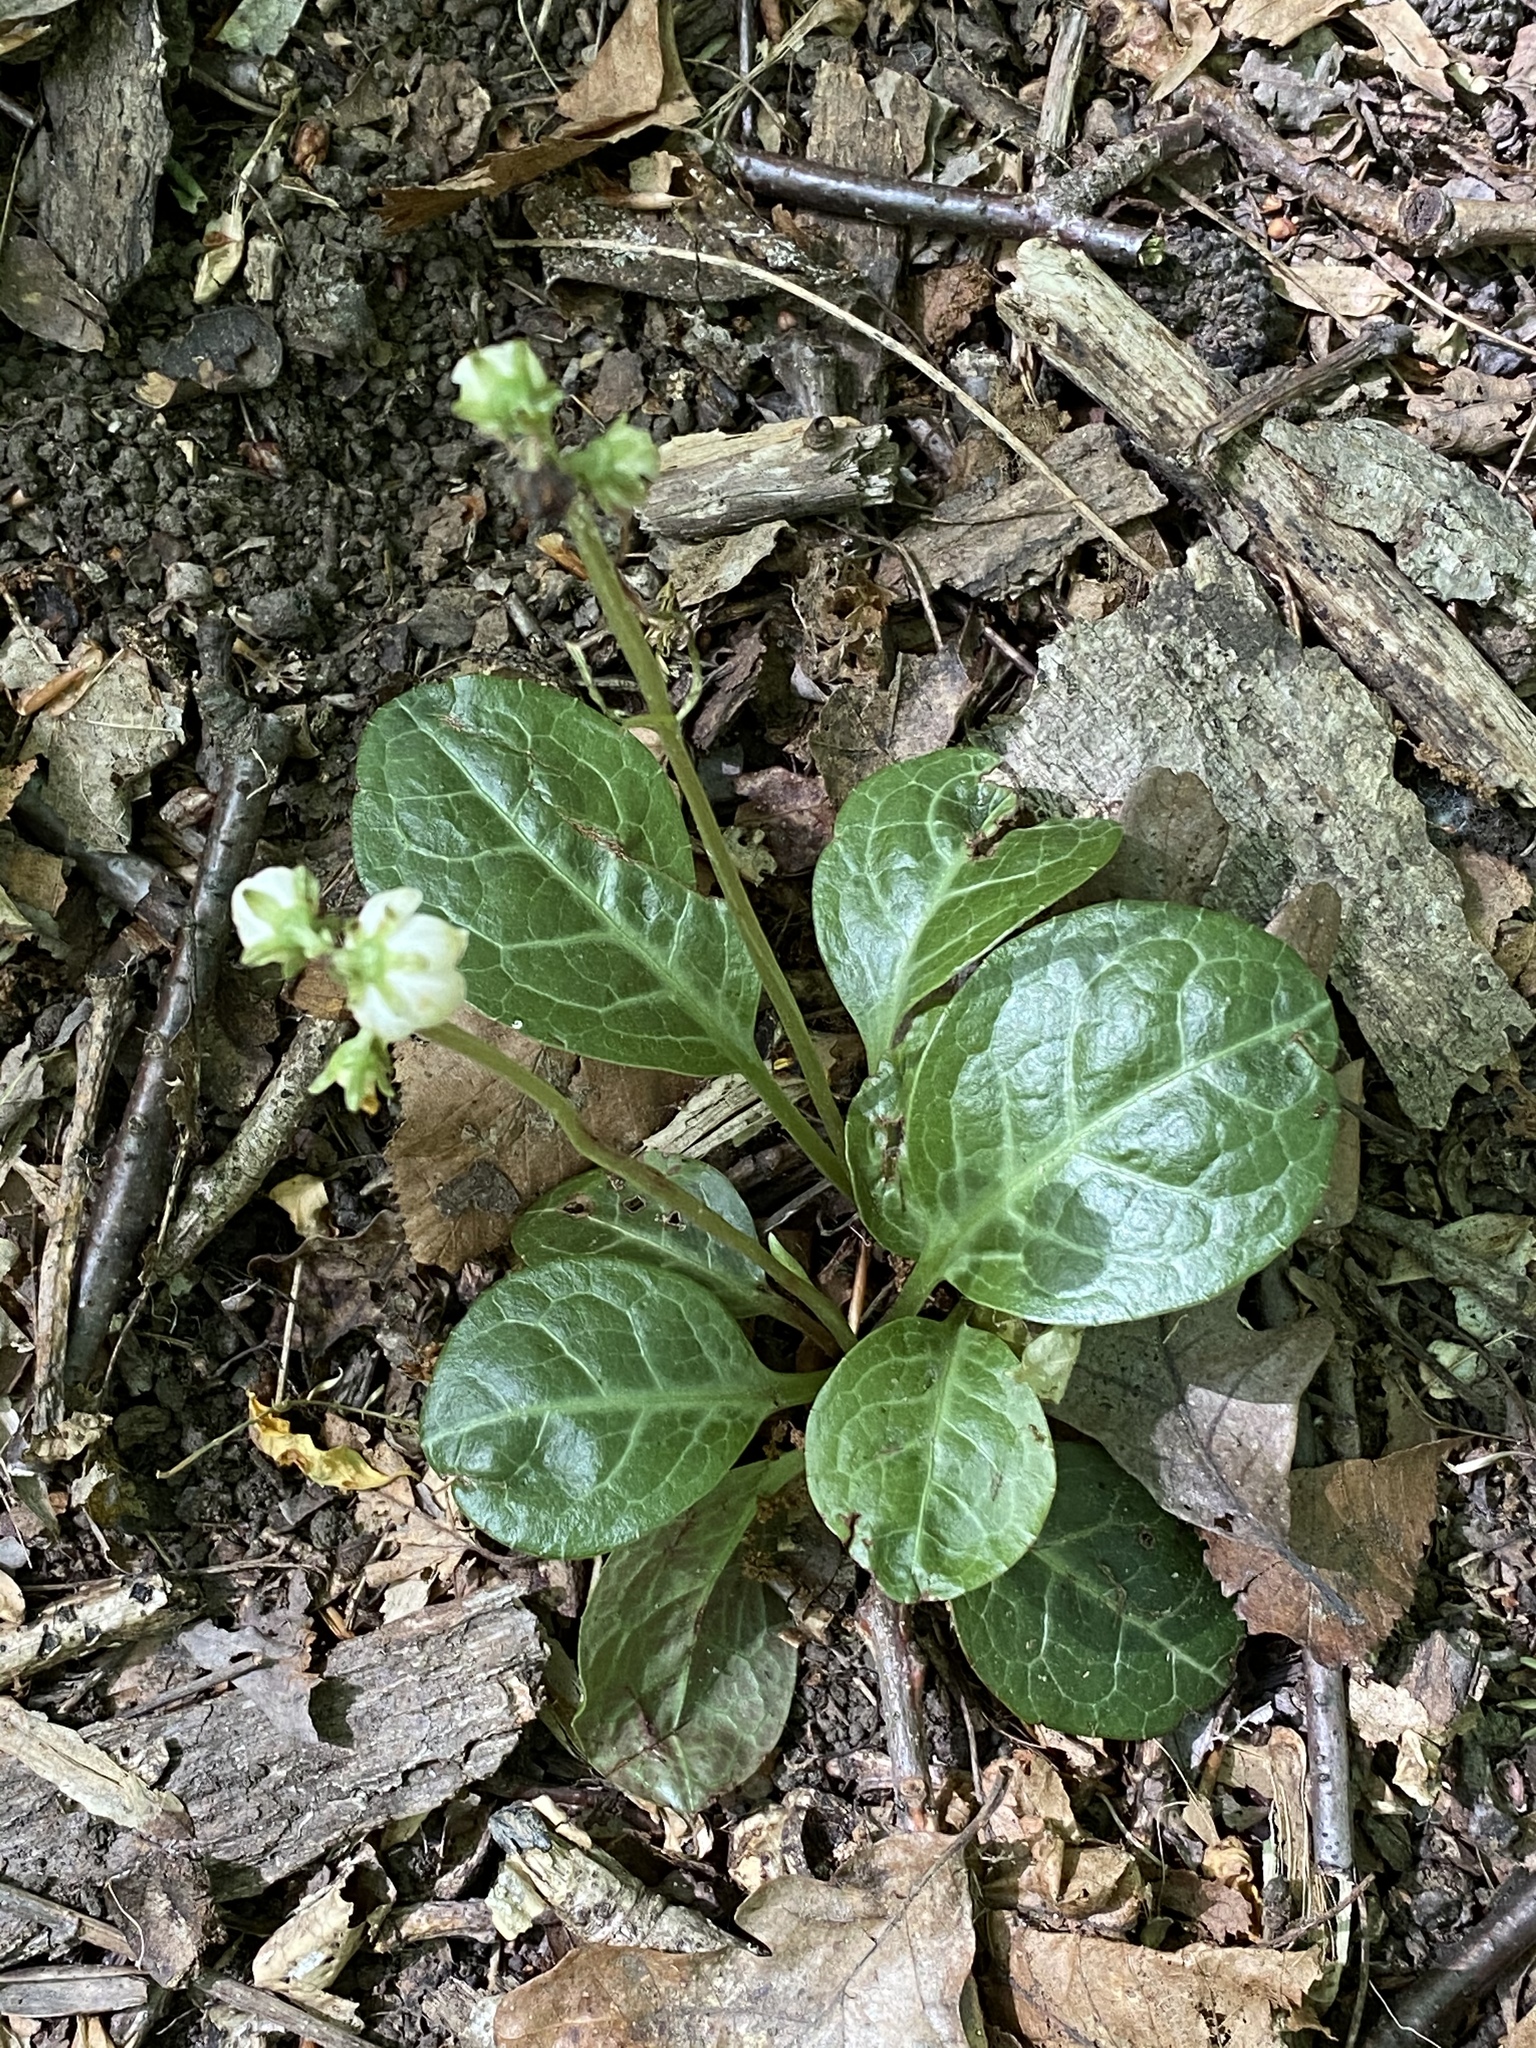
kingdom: Plantae
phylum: Tracheophyta
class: Magnoliopsida
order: Ericales
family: Ericaceae
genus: Pyrola
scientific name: Pyrola americana
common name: American wintergreen
